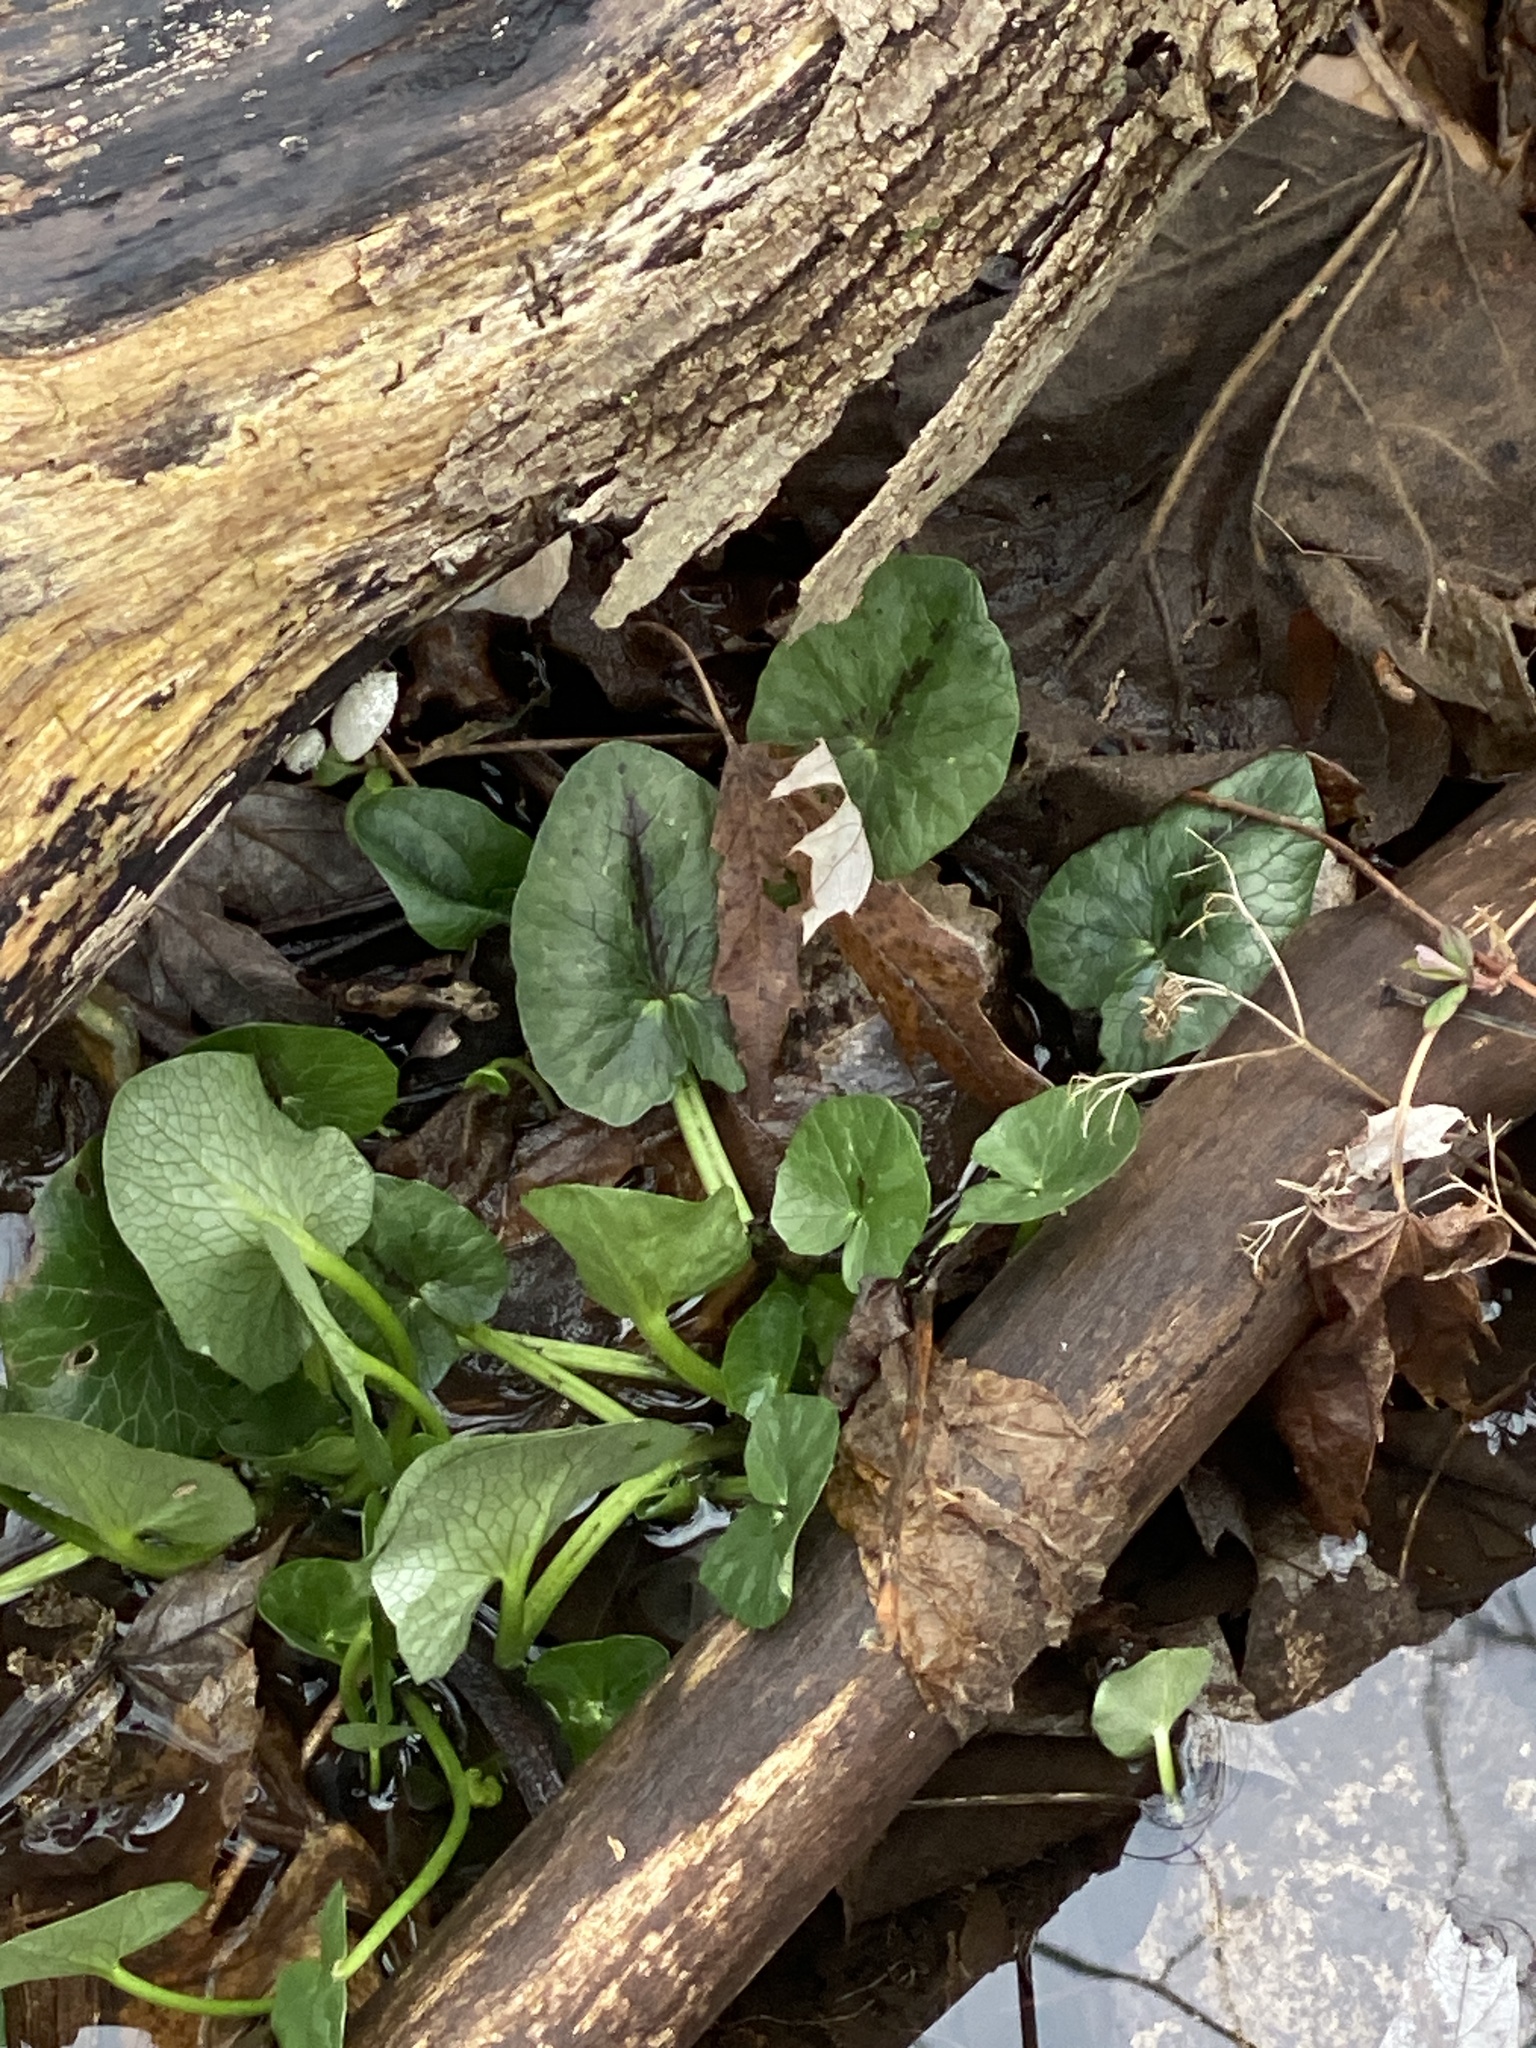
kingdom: Plantae
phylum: Tracheophyta
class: Magnoliopsida
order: Ranunculales
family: Ranunculaceae
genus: Ficaria
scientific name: Ficaria verna
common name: Lesser celandine
